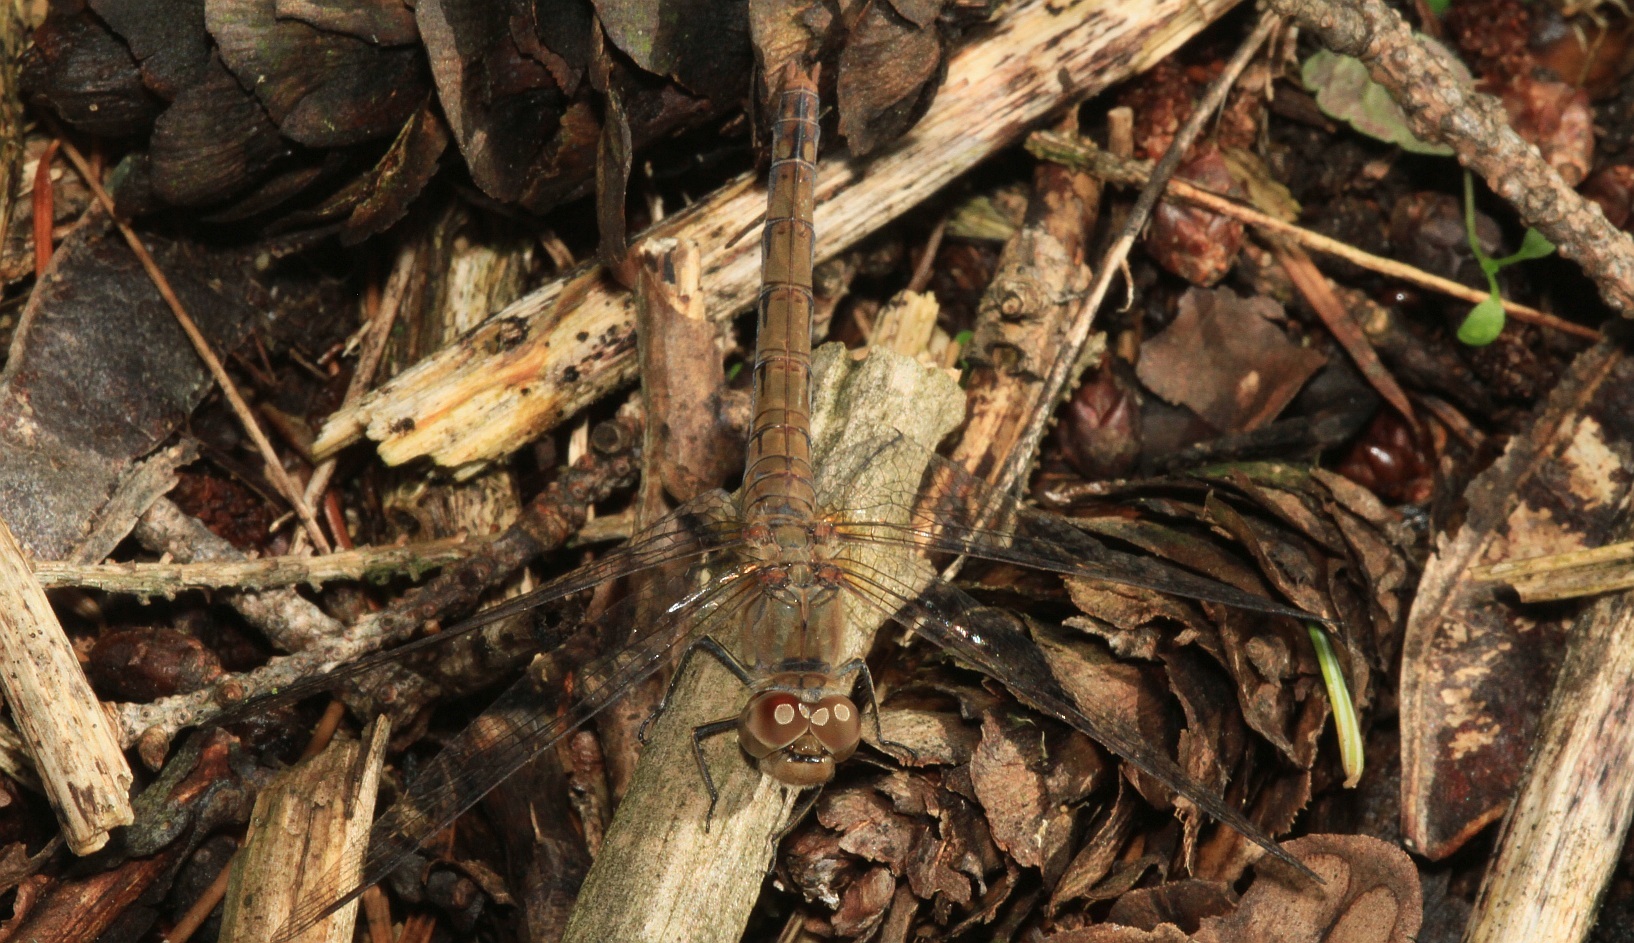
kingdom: Animalia
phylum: Arthropoda
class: Insecta
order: Odonata
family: Libellulidae
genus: Sympetrum
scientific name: Sympetrum striolatum
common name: Common darter
